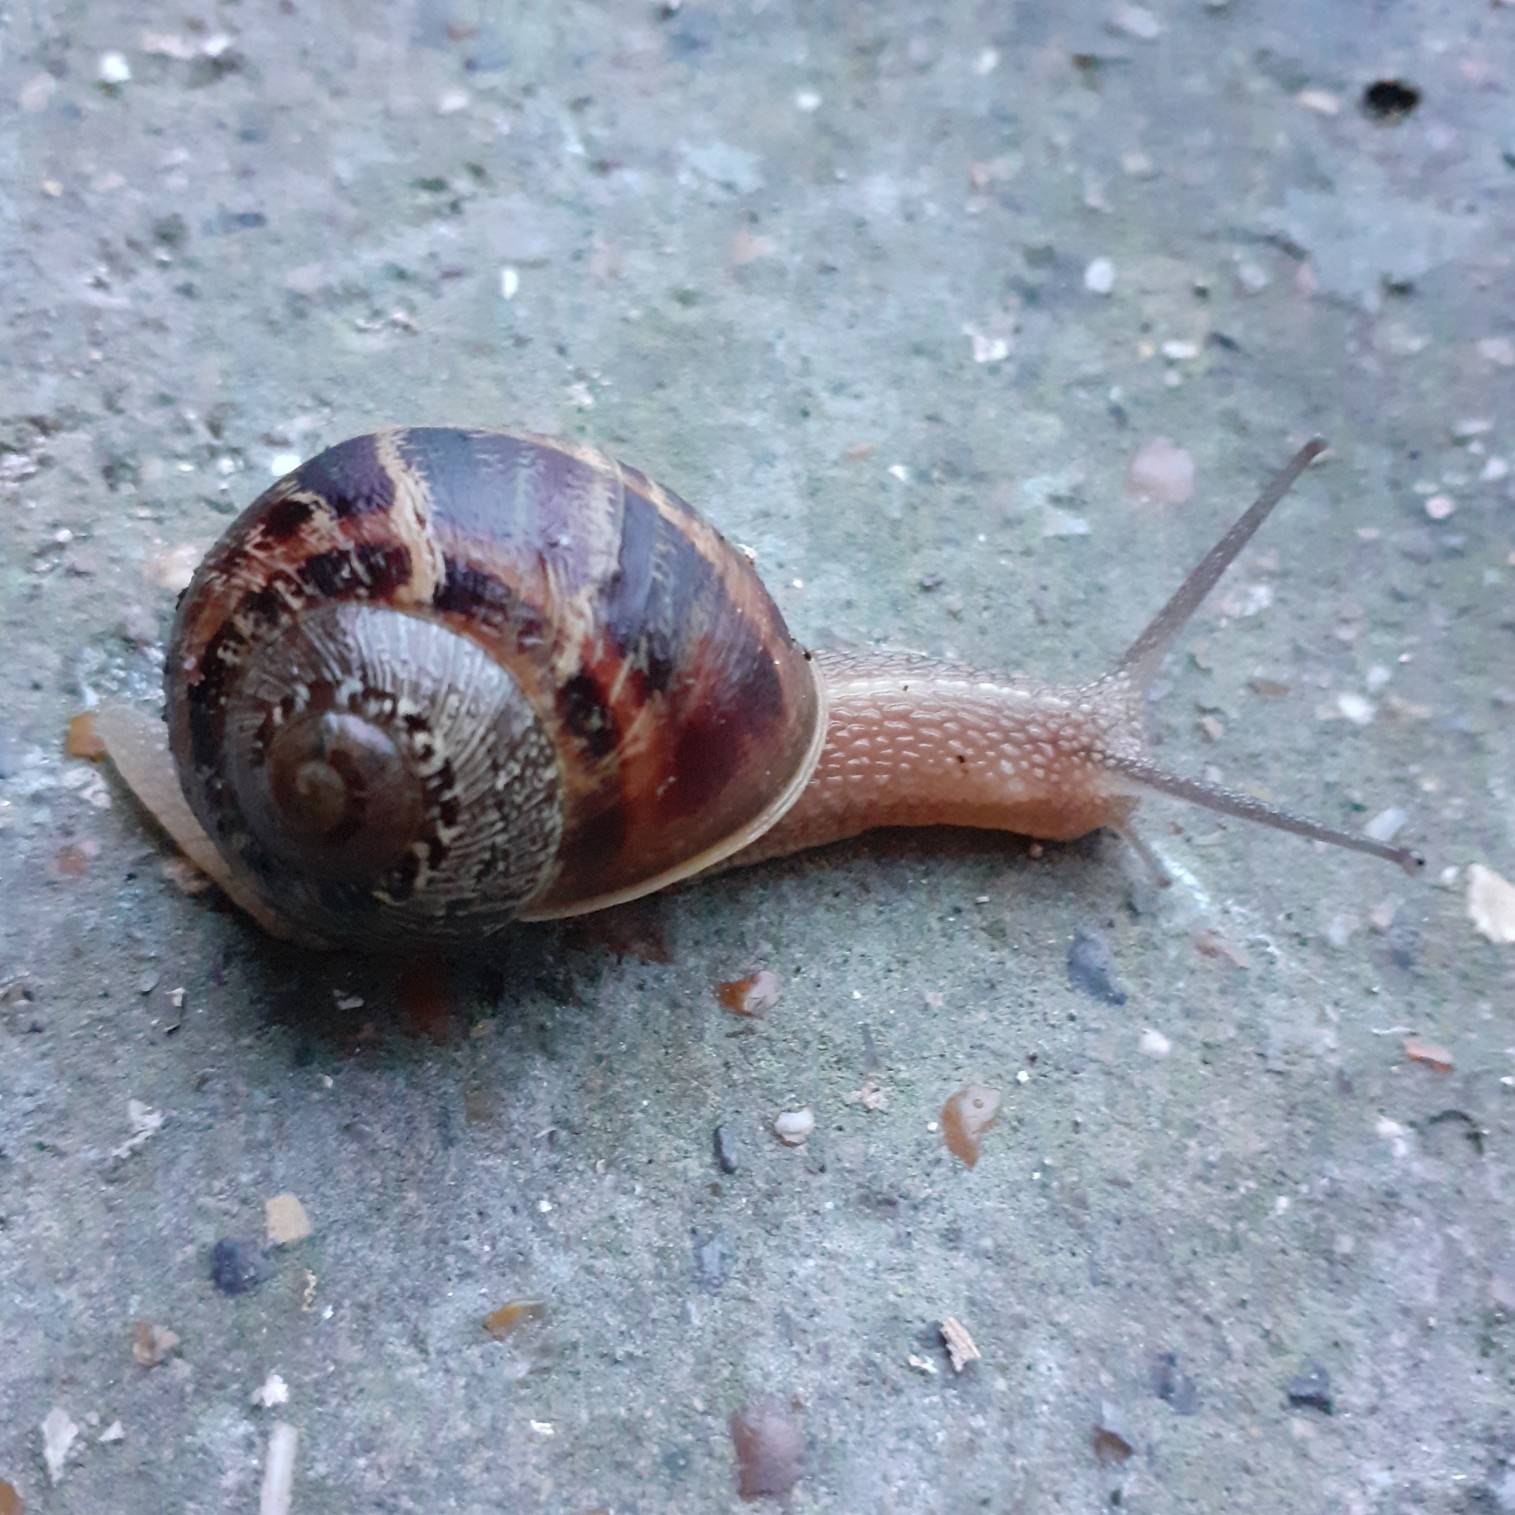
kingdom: Animalia
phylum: Mollusca
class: Gastropoda
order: Stylommatophora
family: Helicidae
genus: Cornu
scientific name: Cornu aspersum
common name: Brown garden snail
